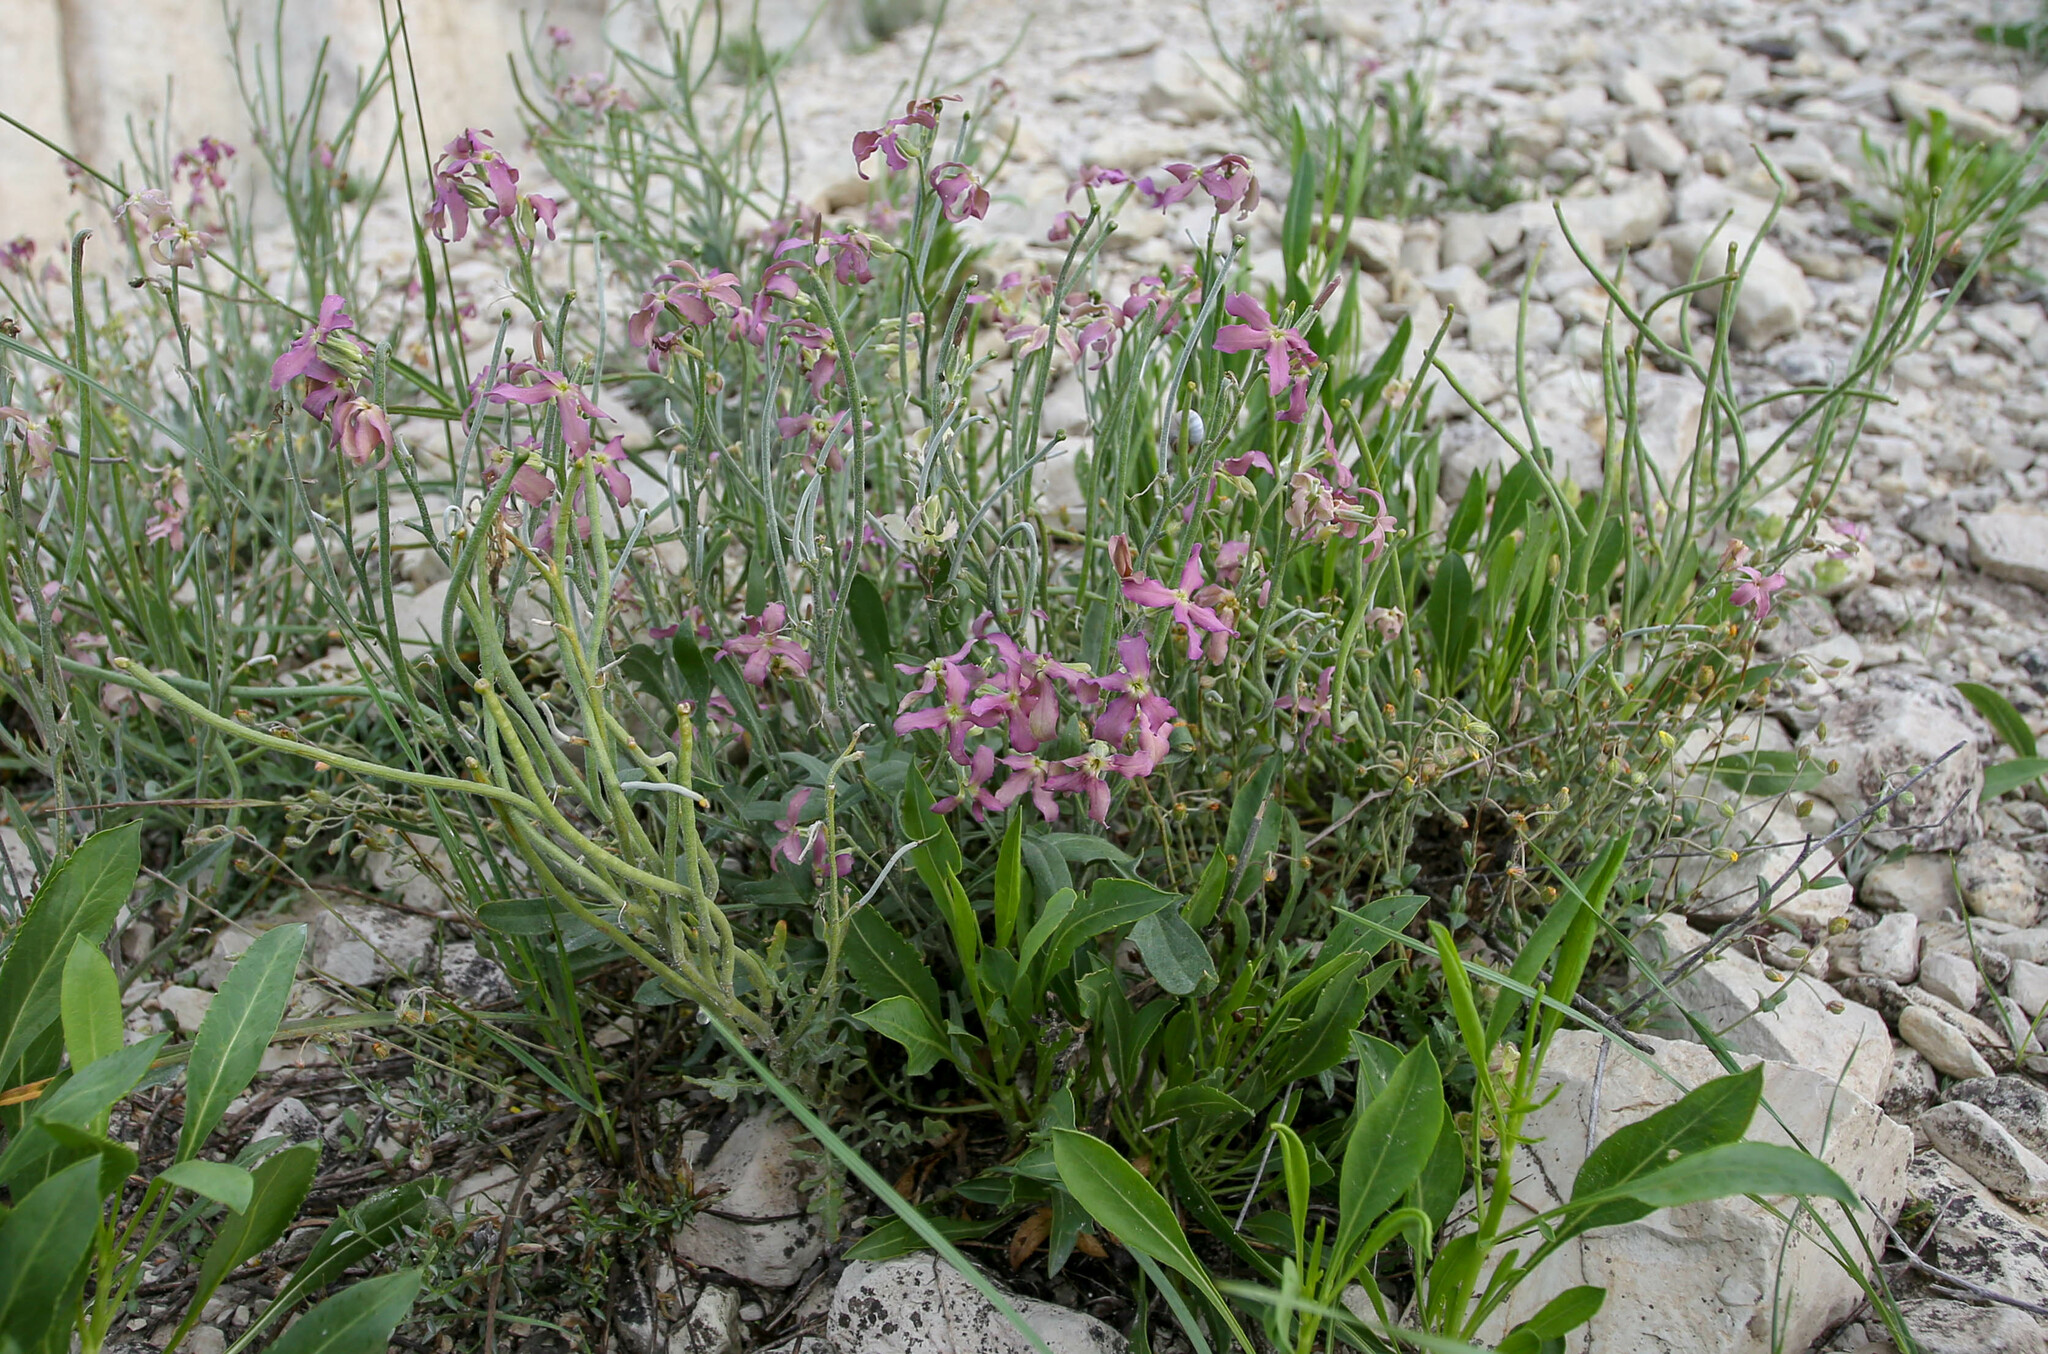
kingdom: Plantae
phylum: Tracheophyta
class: Magnoliopsida
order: Brassicales
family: Brassicaceae
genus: Matthiola
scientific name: Matthiola odoratissima
